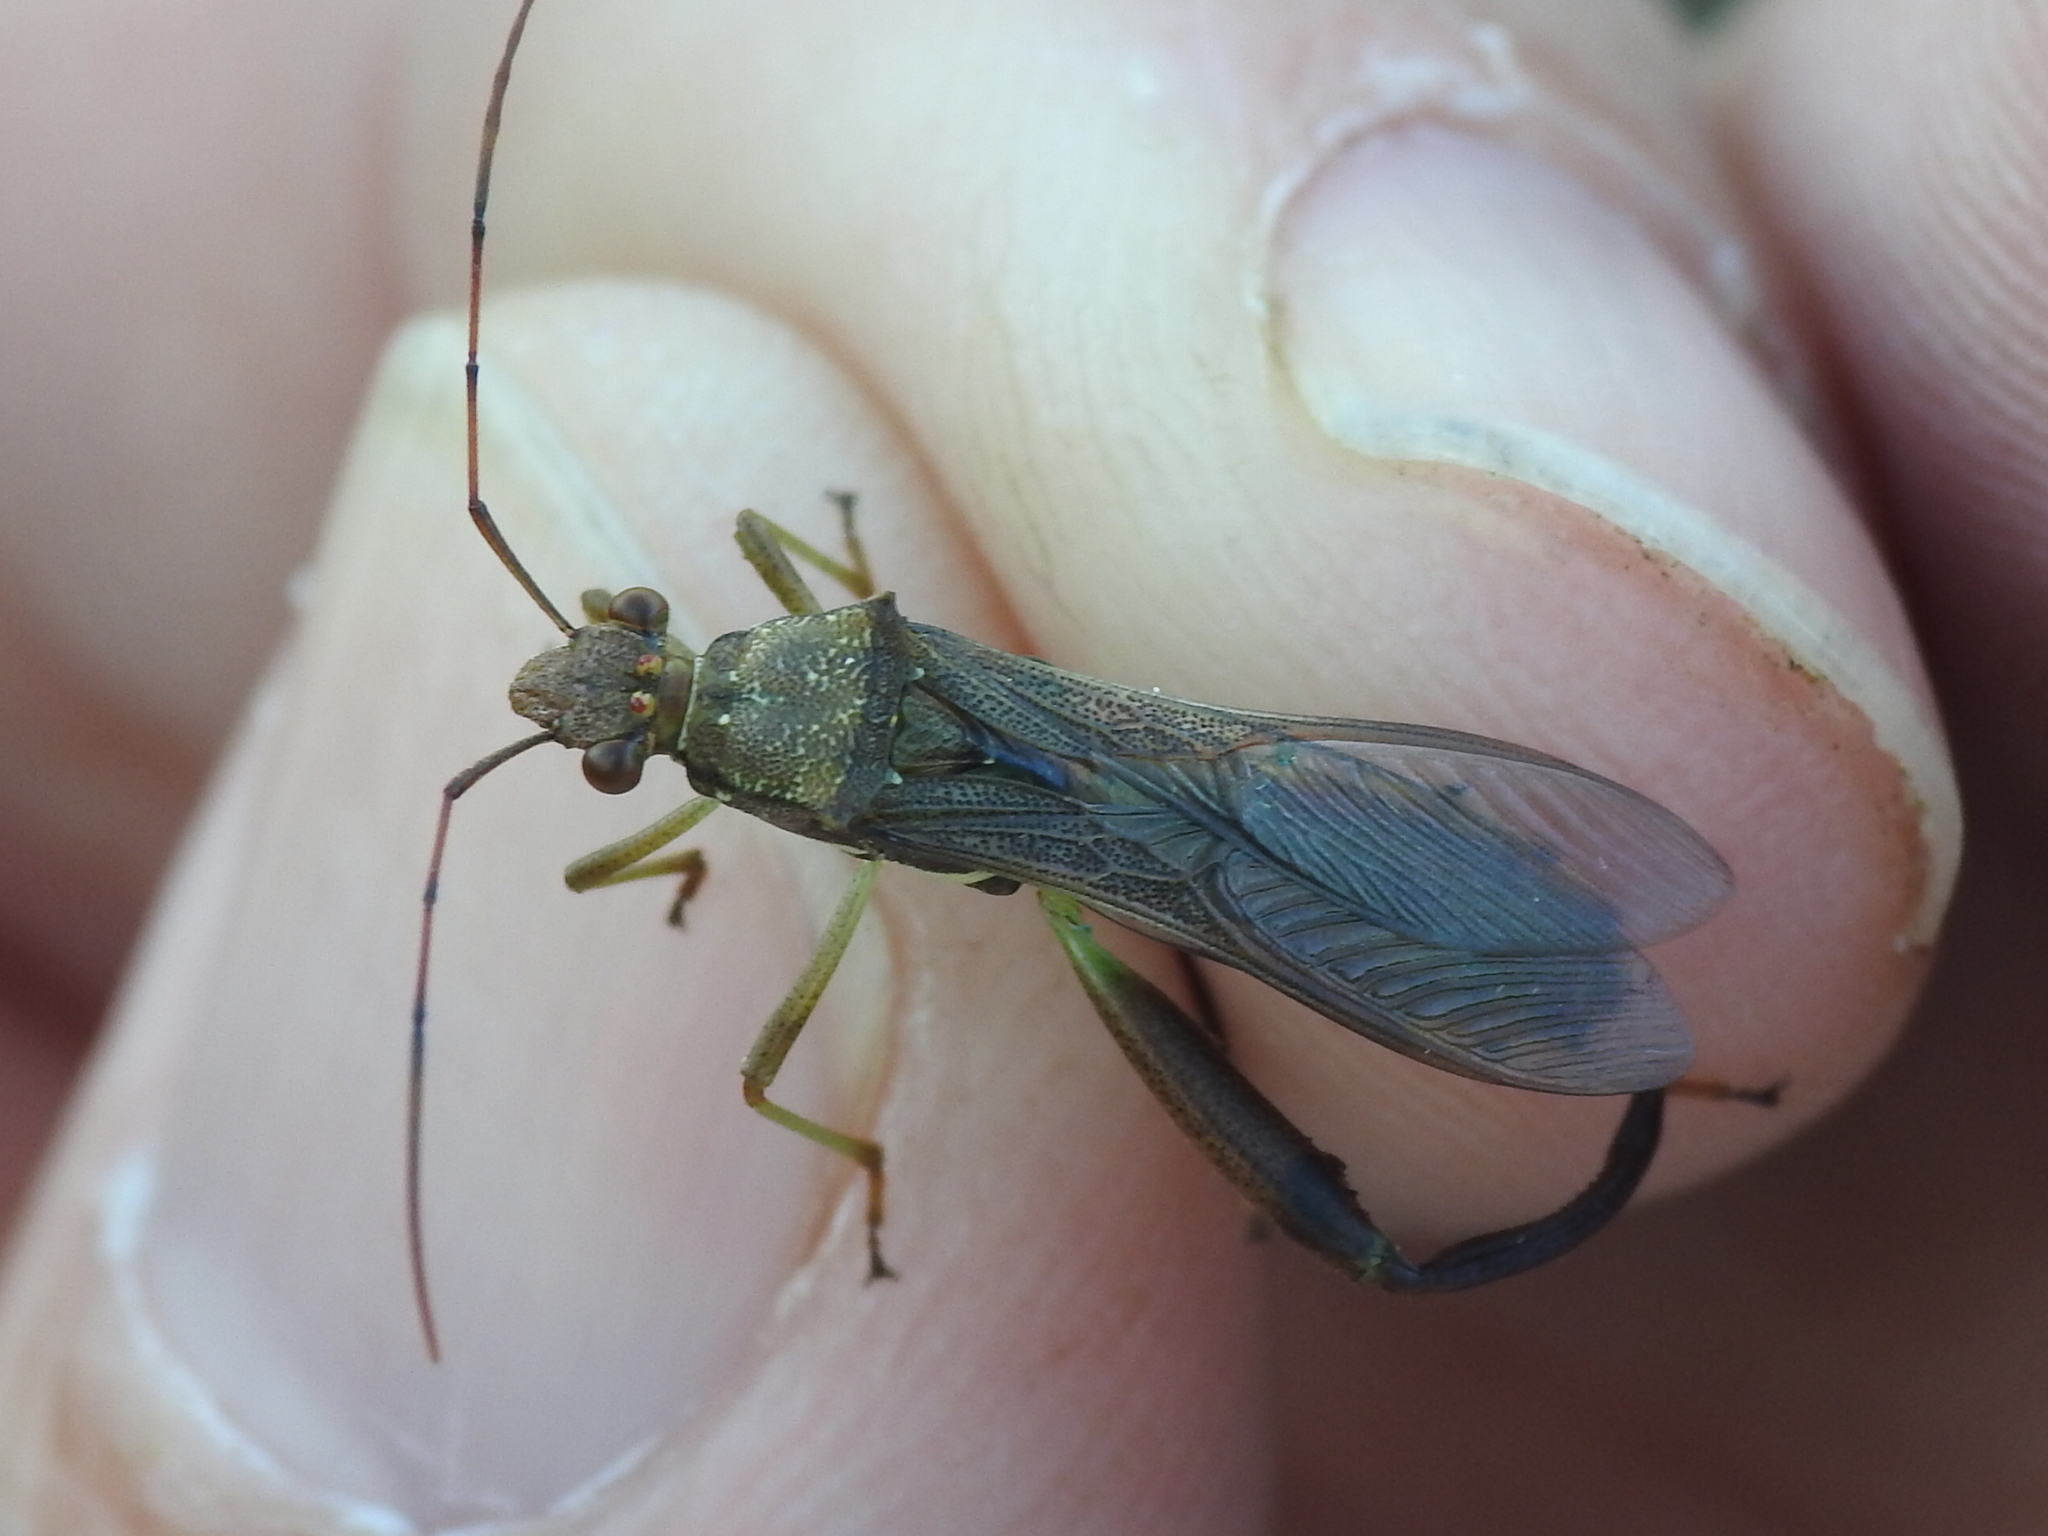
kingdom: Animalia
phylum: Arthropoda
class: Insecta
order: Hemiptera
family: Alydidae
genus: Hyalymenus
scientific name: Hyalymenus tarsatus
